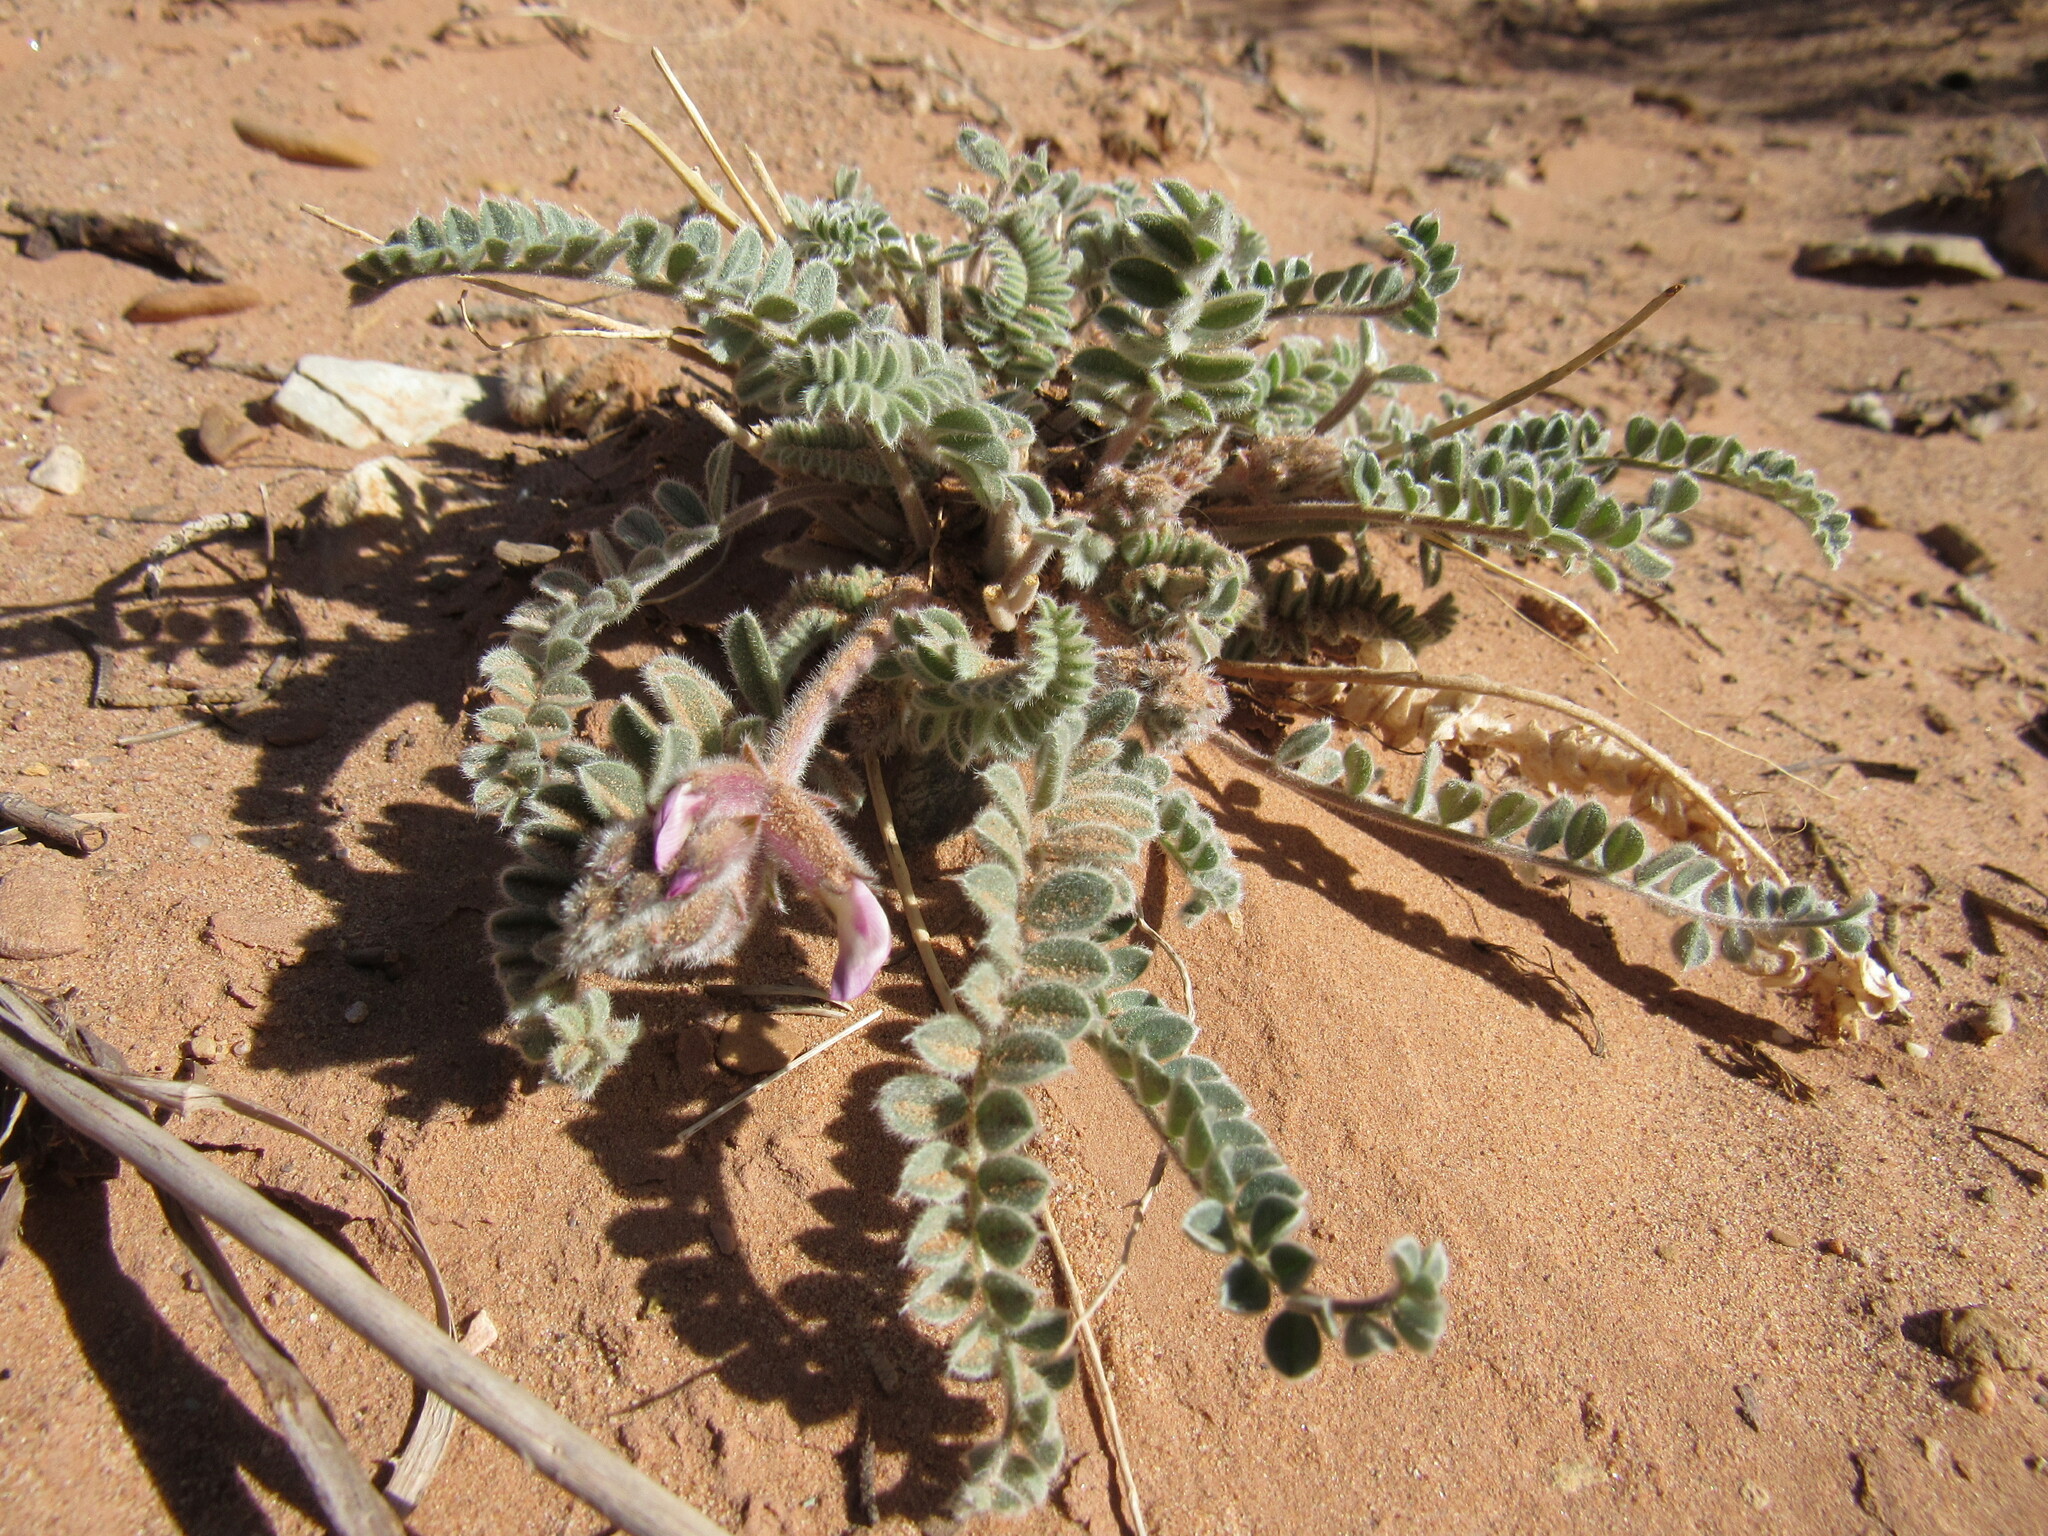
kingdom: Plantae
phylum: Tracheophyta
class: Magnoliopsida
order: Fabales
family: Fabaceae
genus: Astragalus
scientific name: Astragalus mollissimus
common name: Woolly locoweed
